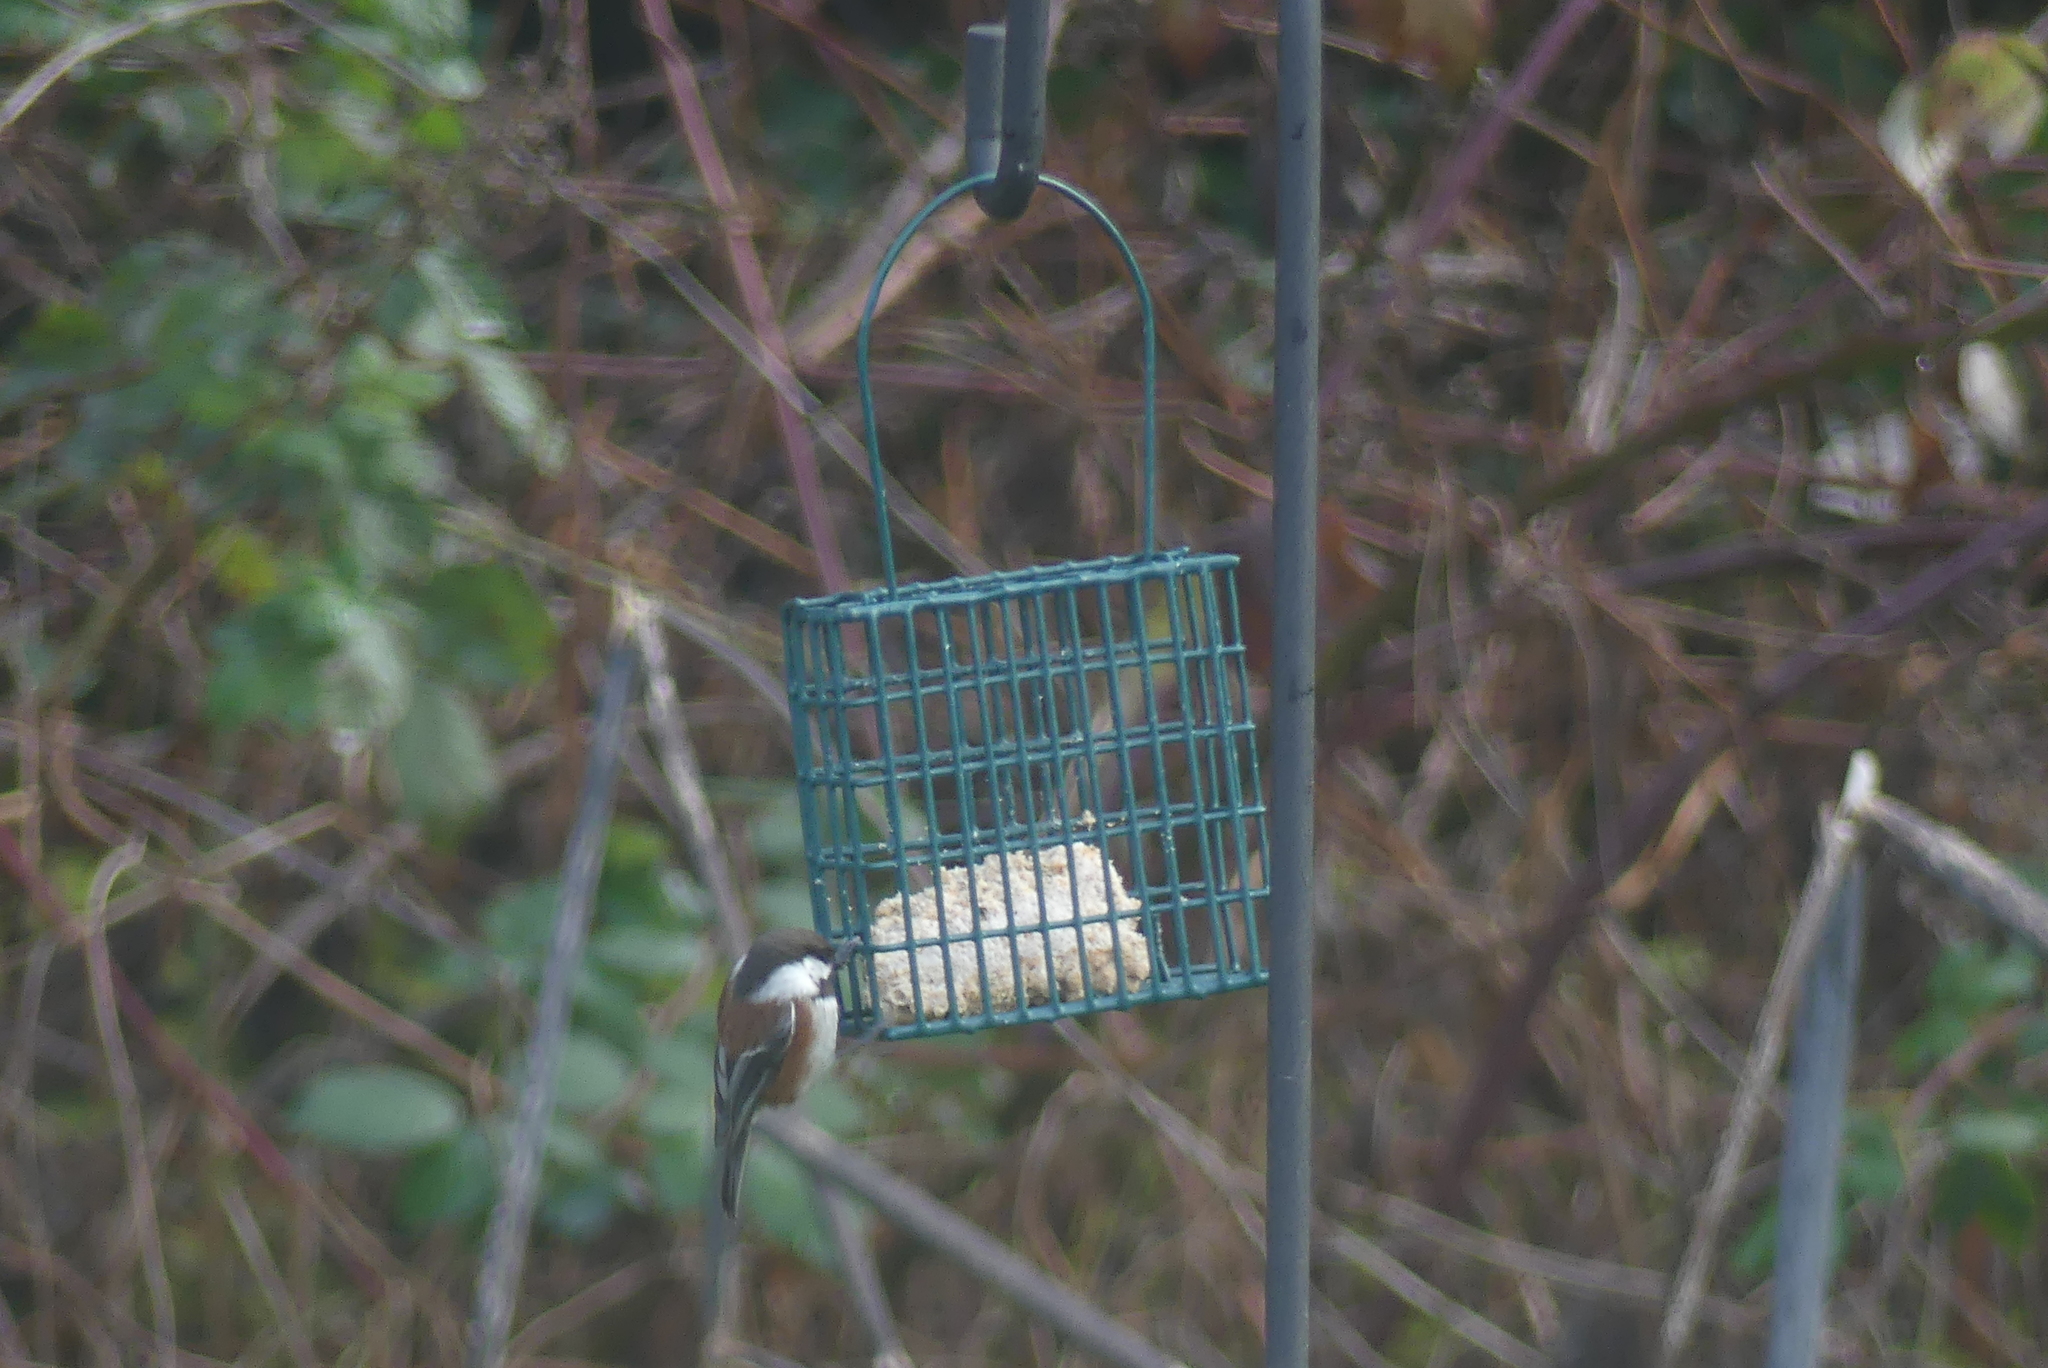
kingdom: Animalia
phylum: Chordata
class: Aves
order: Passeriformes
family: Paridae
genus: Poecile
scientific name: Poecile rufescens
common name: Chestnut-backed chickadee
